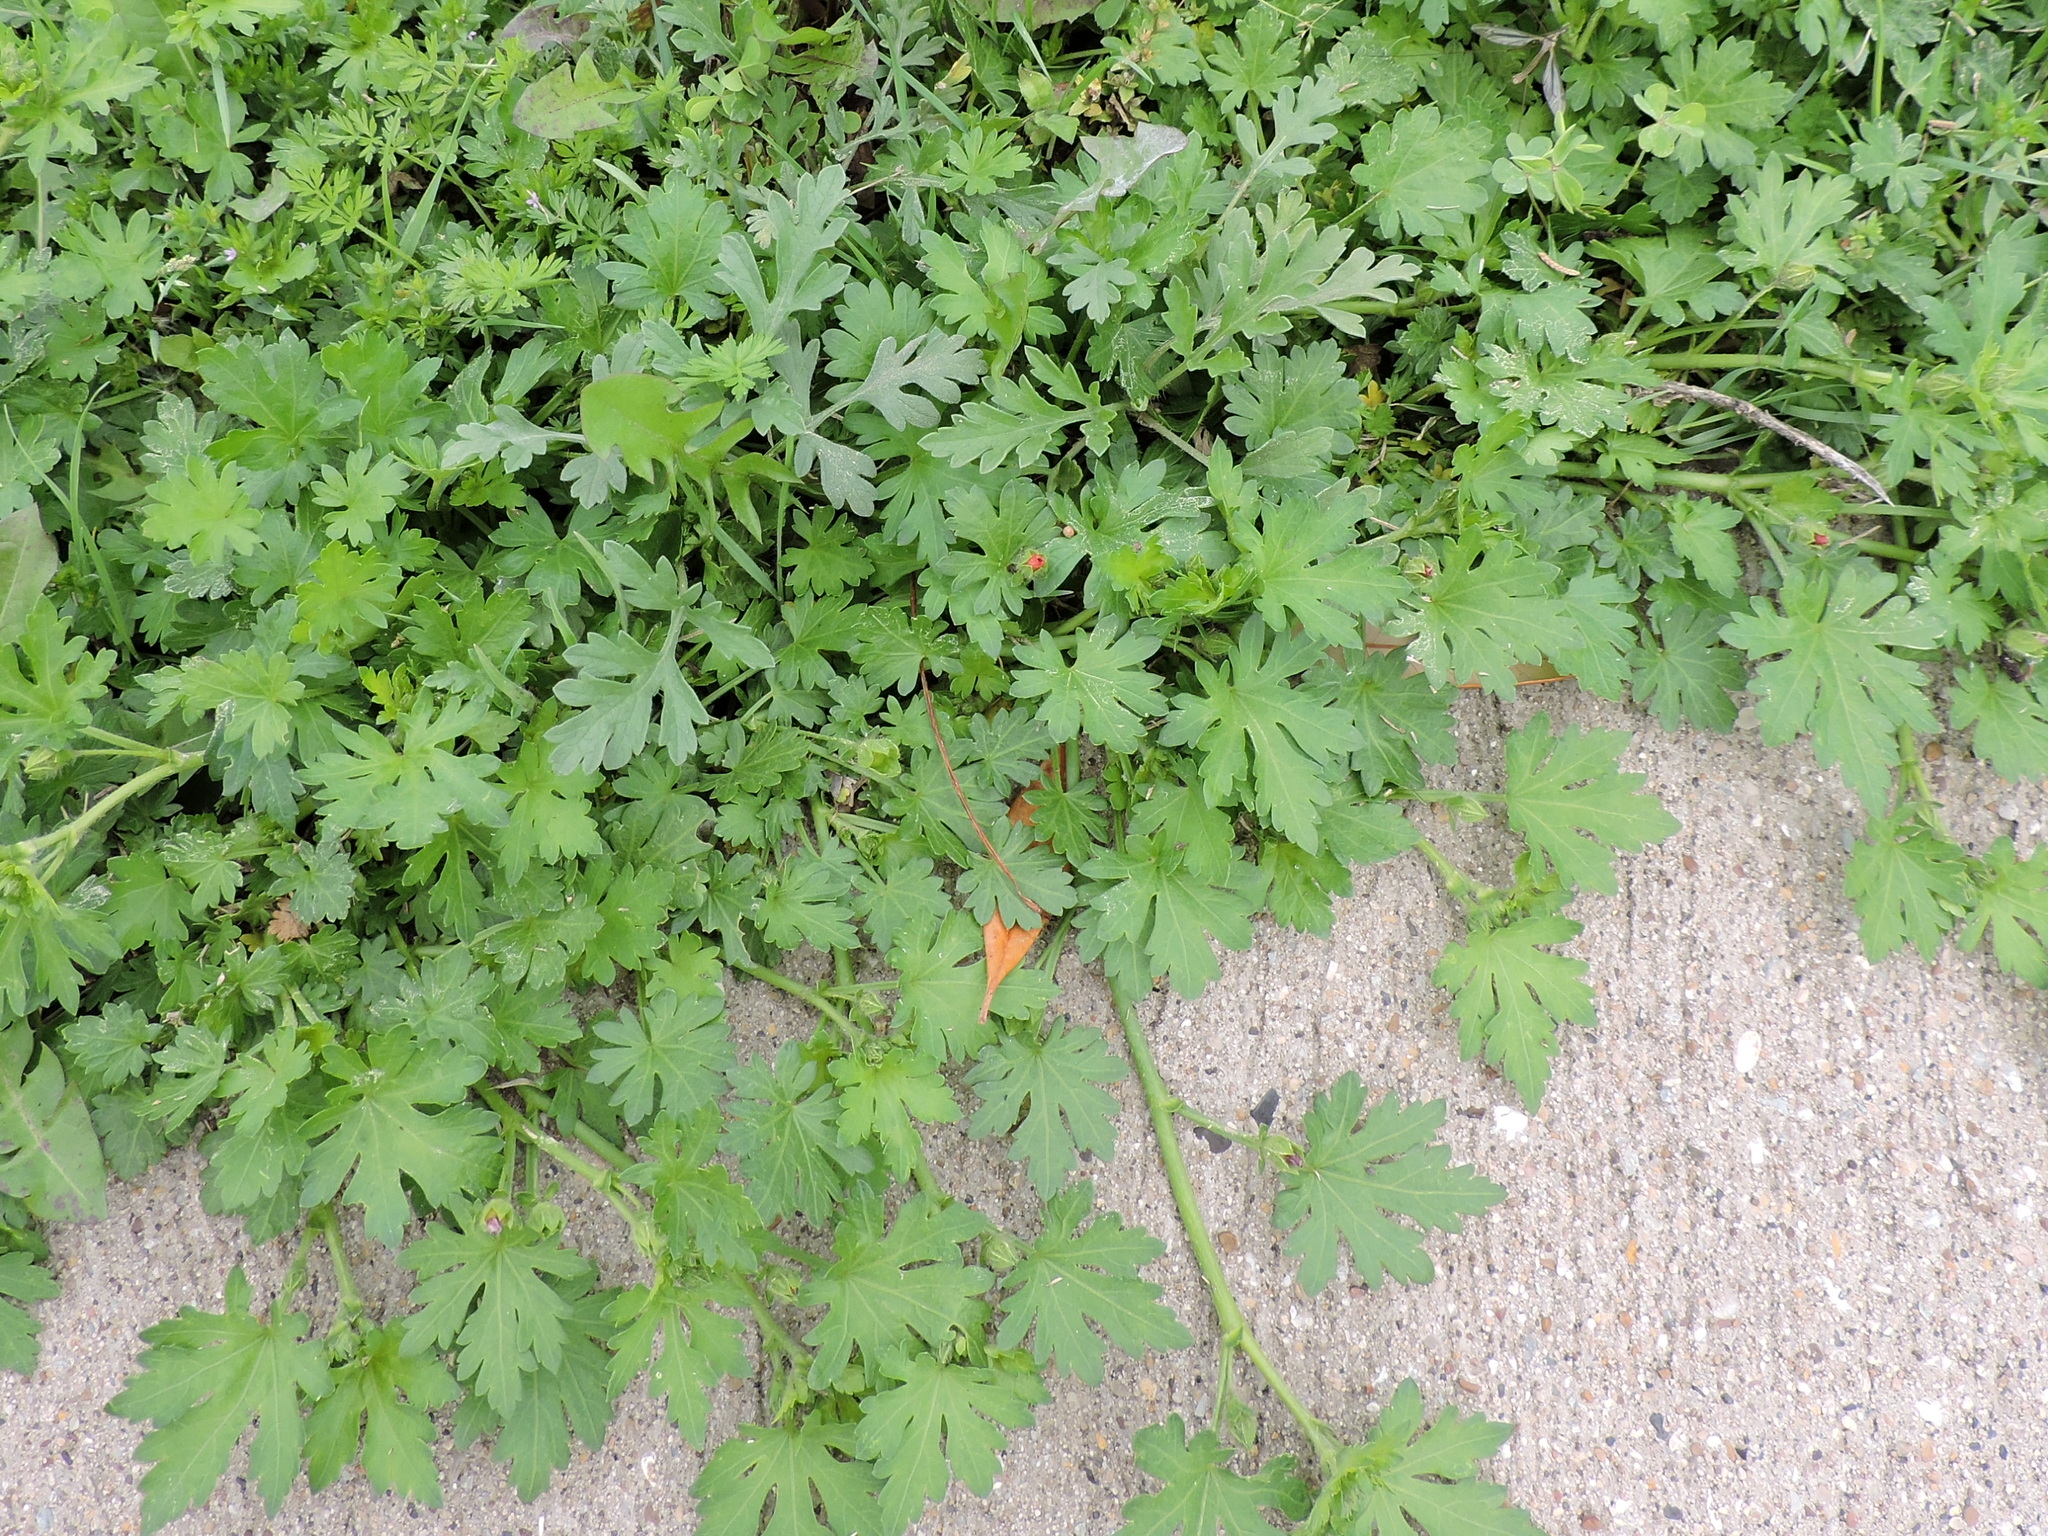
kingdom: Plantae
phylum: Tracheophyta
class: Magnoliopsida
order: Malvales
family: Malvaceae
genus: Modiola
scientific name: Modiola caroliniana
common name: Carolina bristlemallow
